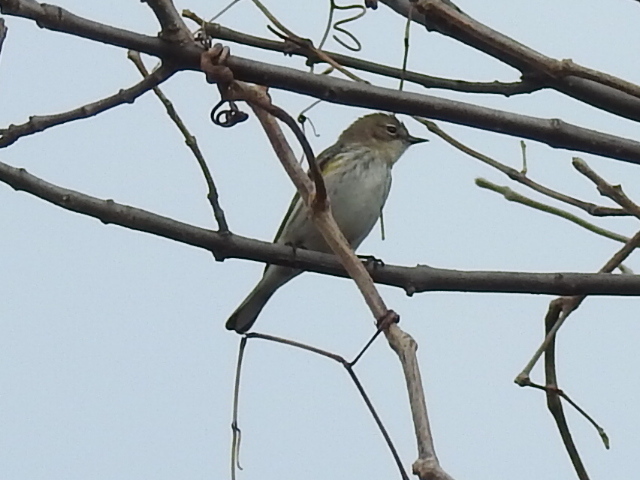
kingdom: Animalia
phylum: Chordata
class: Aves
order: Passeriformes
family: Parulidae
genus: Setophaga
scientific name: Setophaga coronata
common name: Myrtle warbler
